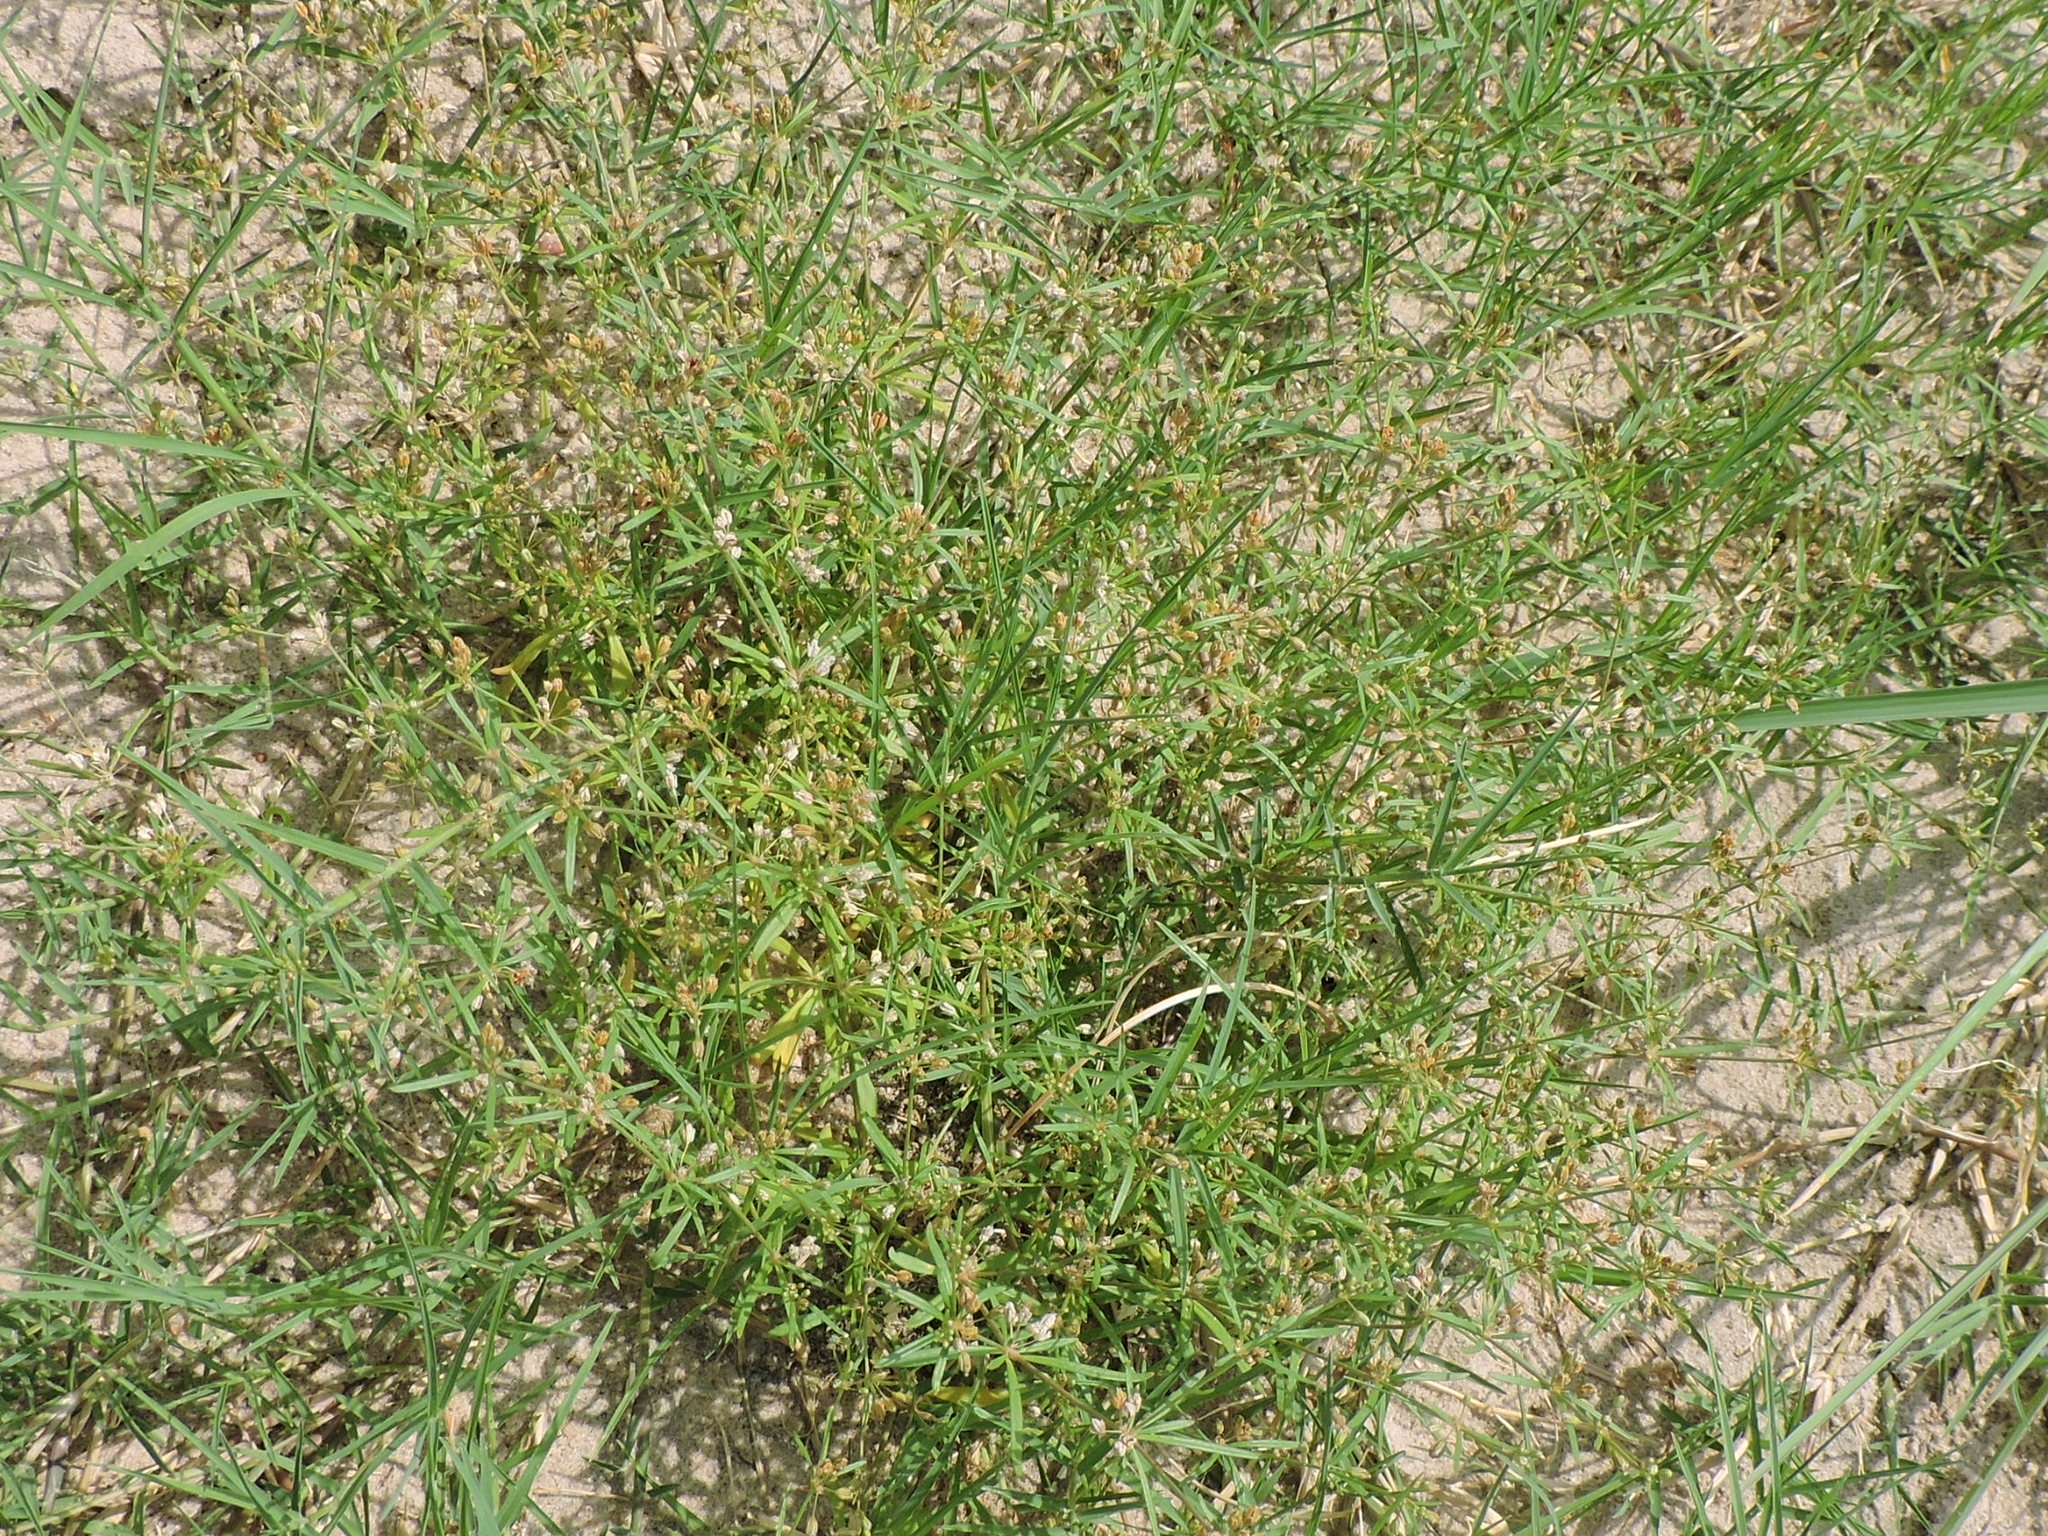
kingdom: Plantae
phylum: Tracheophyta
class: Magnoliopsida
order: Caryophyllales
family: Molluginaceae
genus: Mollugo
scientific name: Mollugo verticillata
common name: Green carpetweed
